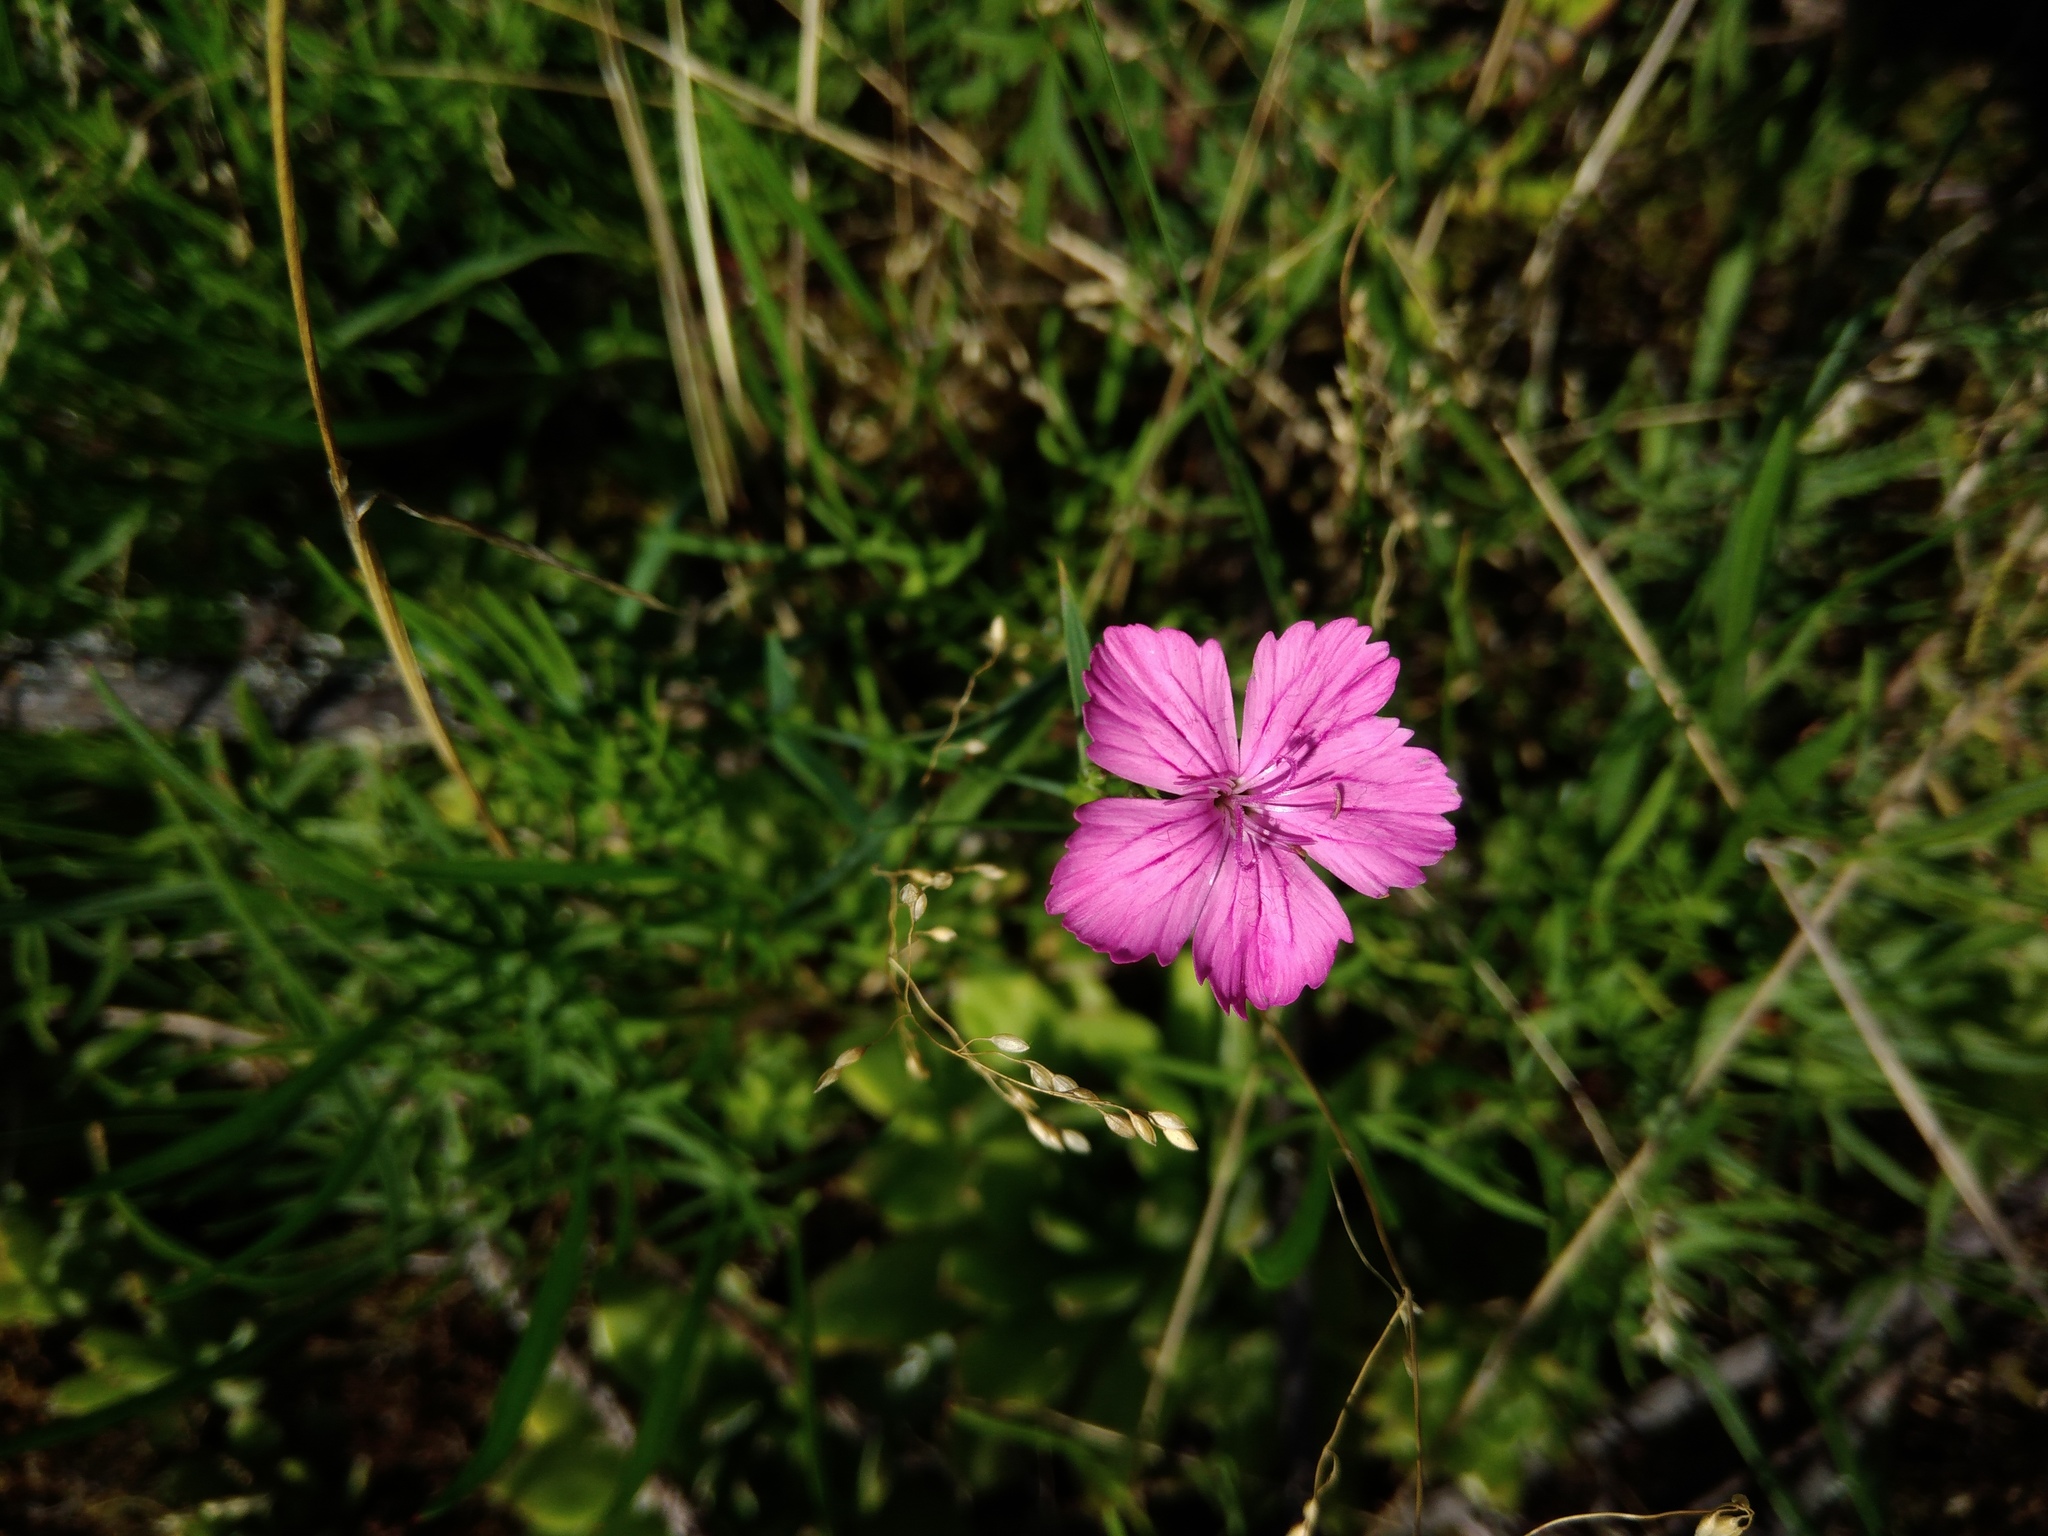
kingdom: Plantae
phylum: Tracheophyta
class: Magnoliopsida
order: Caryophyllales
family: Caryophyllaceae
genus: Dianthus
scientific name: Dianthus hypanicus
